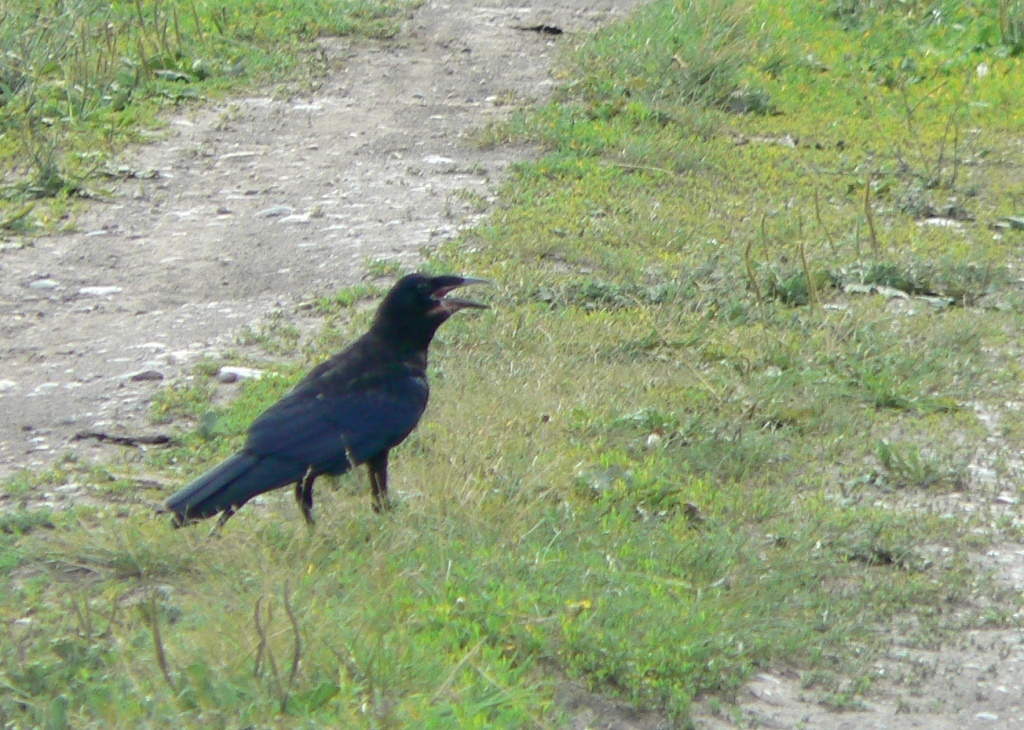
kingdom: Animalia
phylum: Chordata
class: Aves
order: Passeriformes
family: Corvidae
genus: Corvus
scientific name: Corvus frugilegus
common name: Rook
